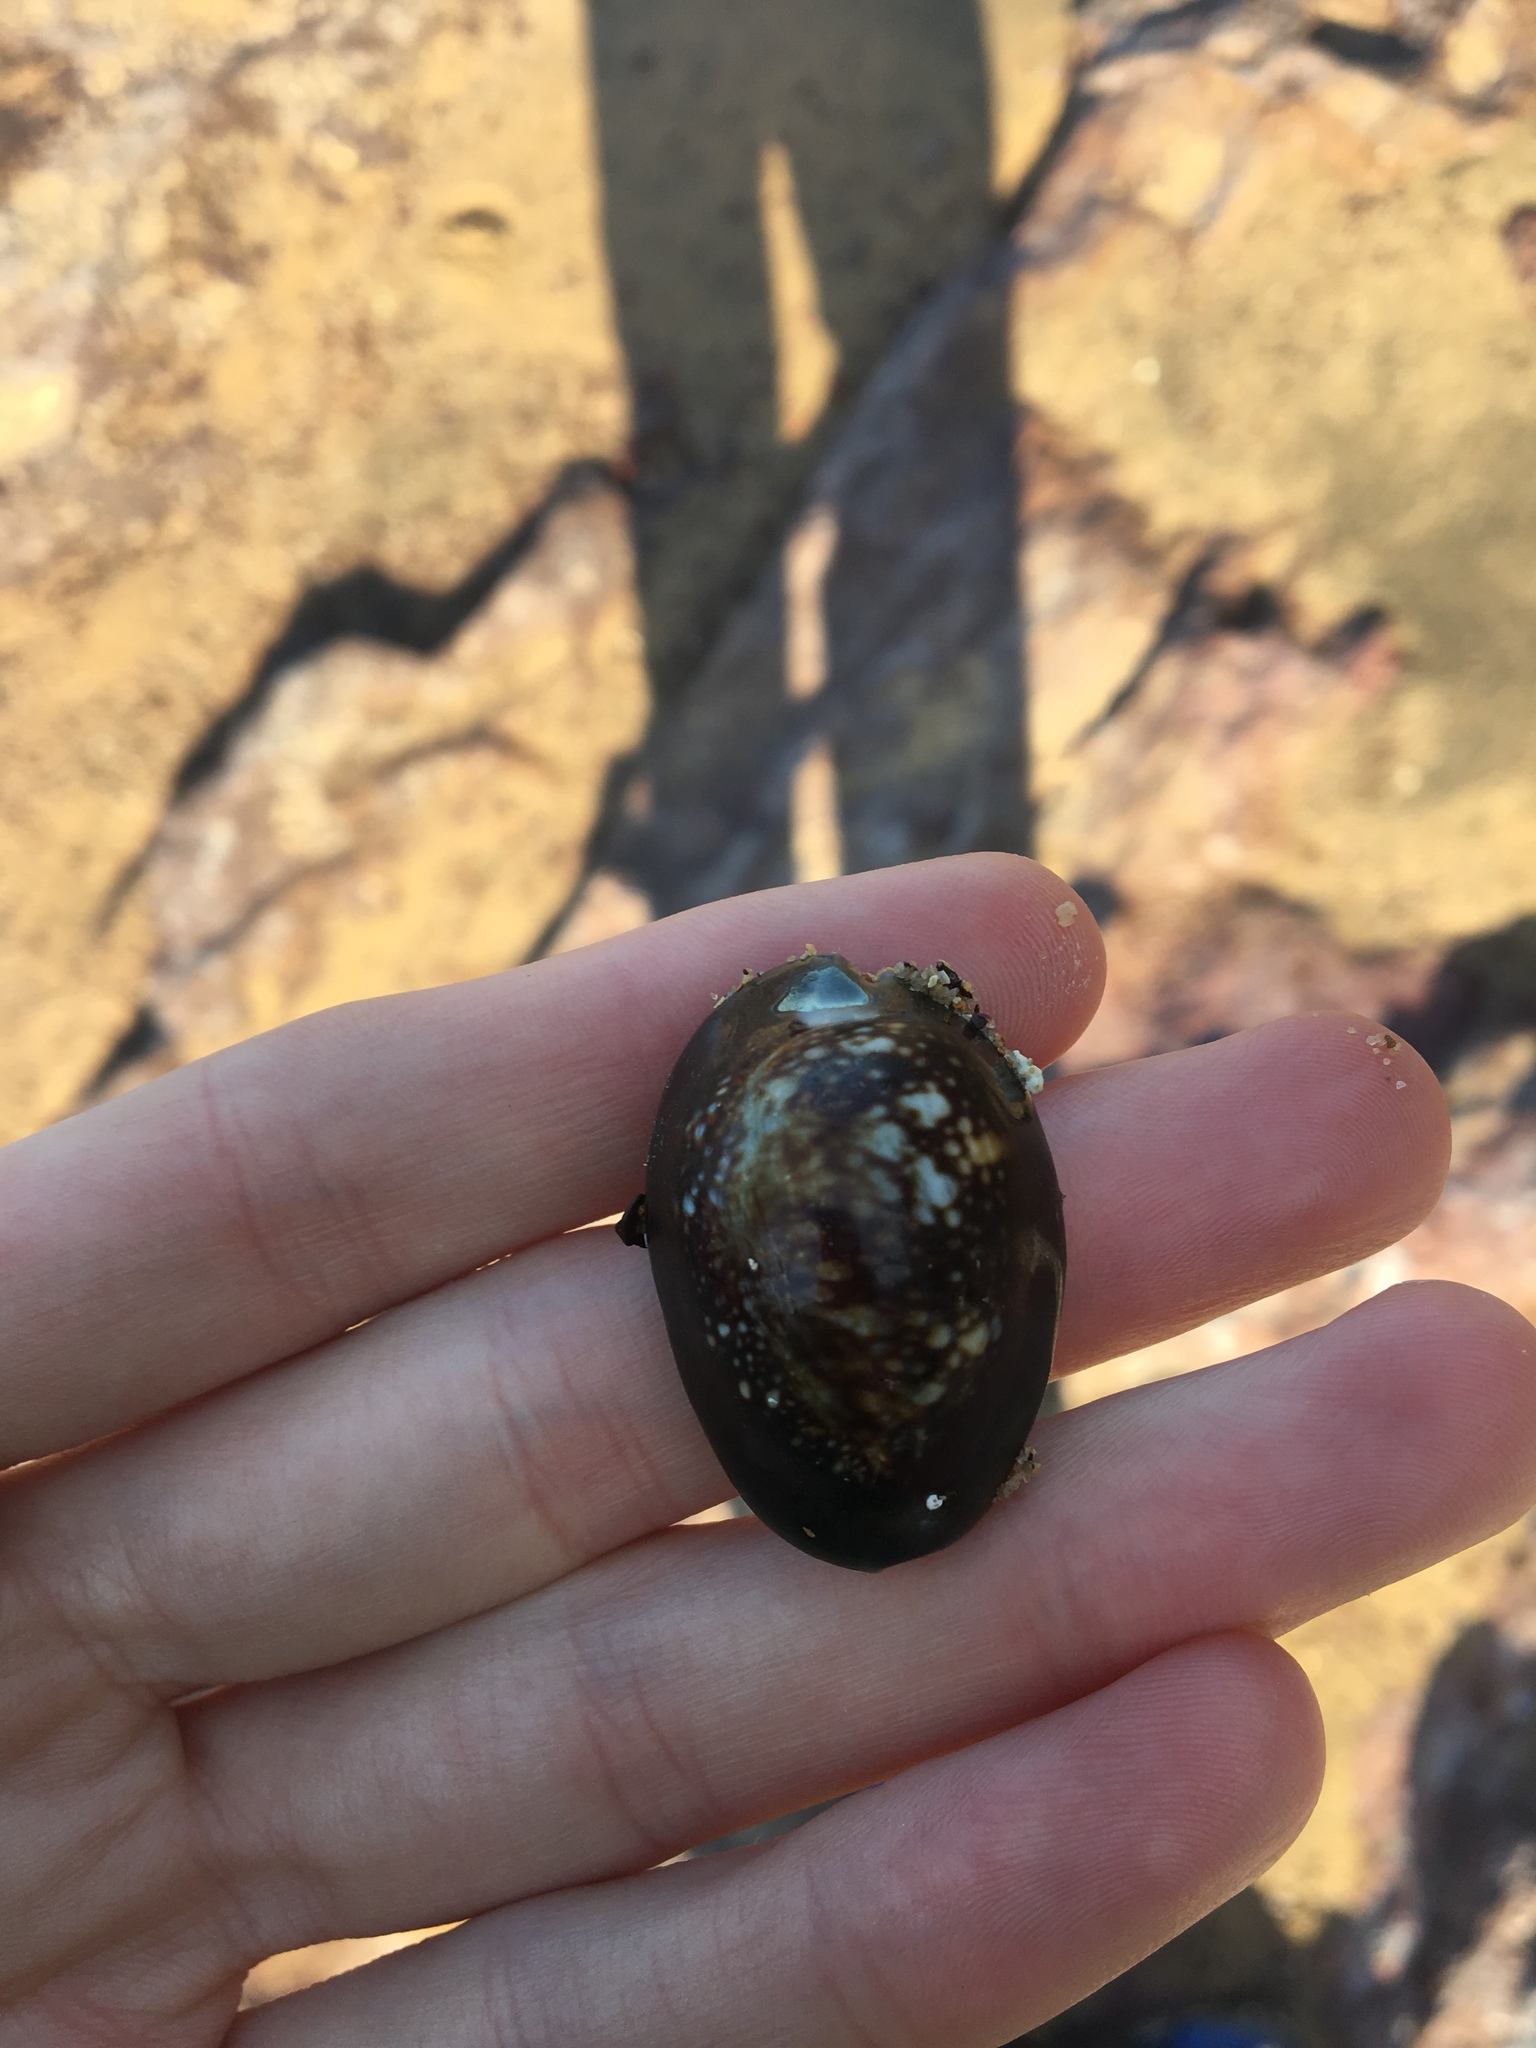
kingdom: Animalia
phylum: Mollusca
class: Gastropoda
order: Littorinimorpha
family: Cypraeidae
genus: Monetaria
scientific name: Monetaria caputserpentis
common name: Serpent's head cowrie
